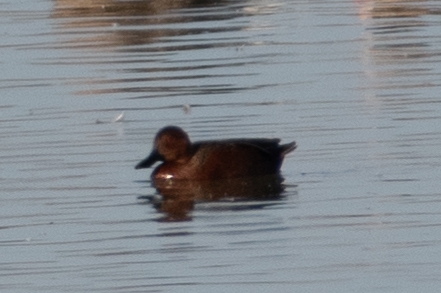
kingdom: Animalia
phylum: Chordata
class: Aves
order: Anseriformes
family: Anatidae
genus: Spatula
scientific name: Spatula cyanoptera
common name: Cinnamon teal
